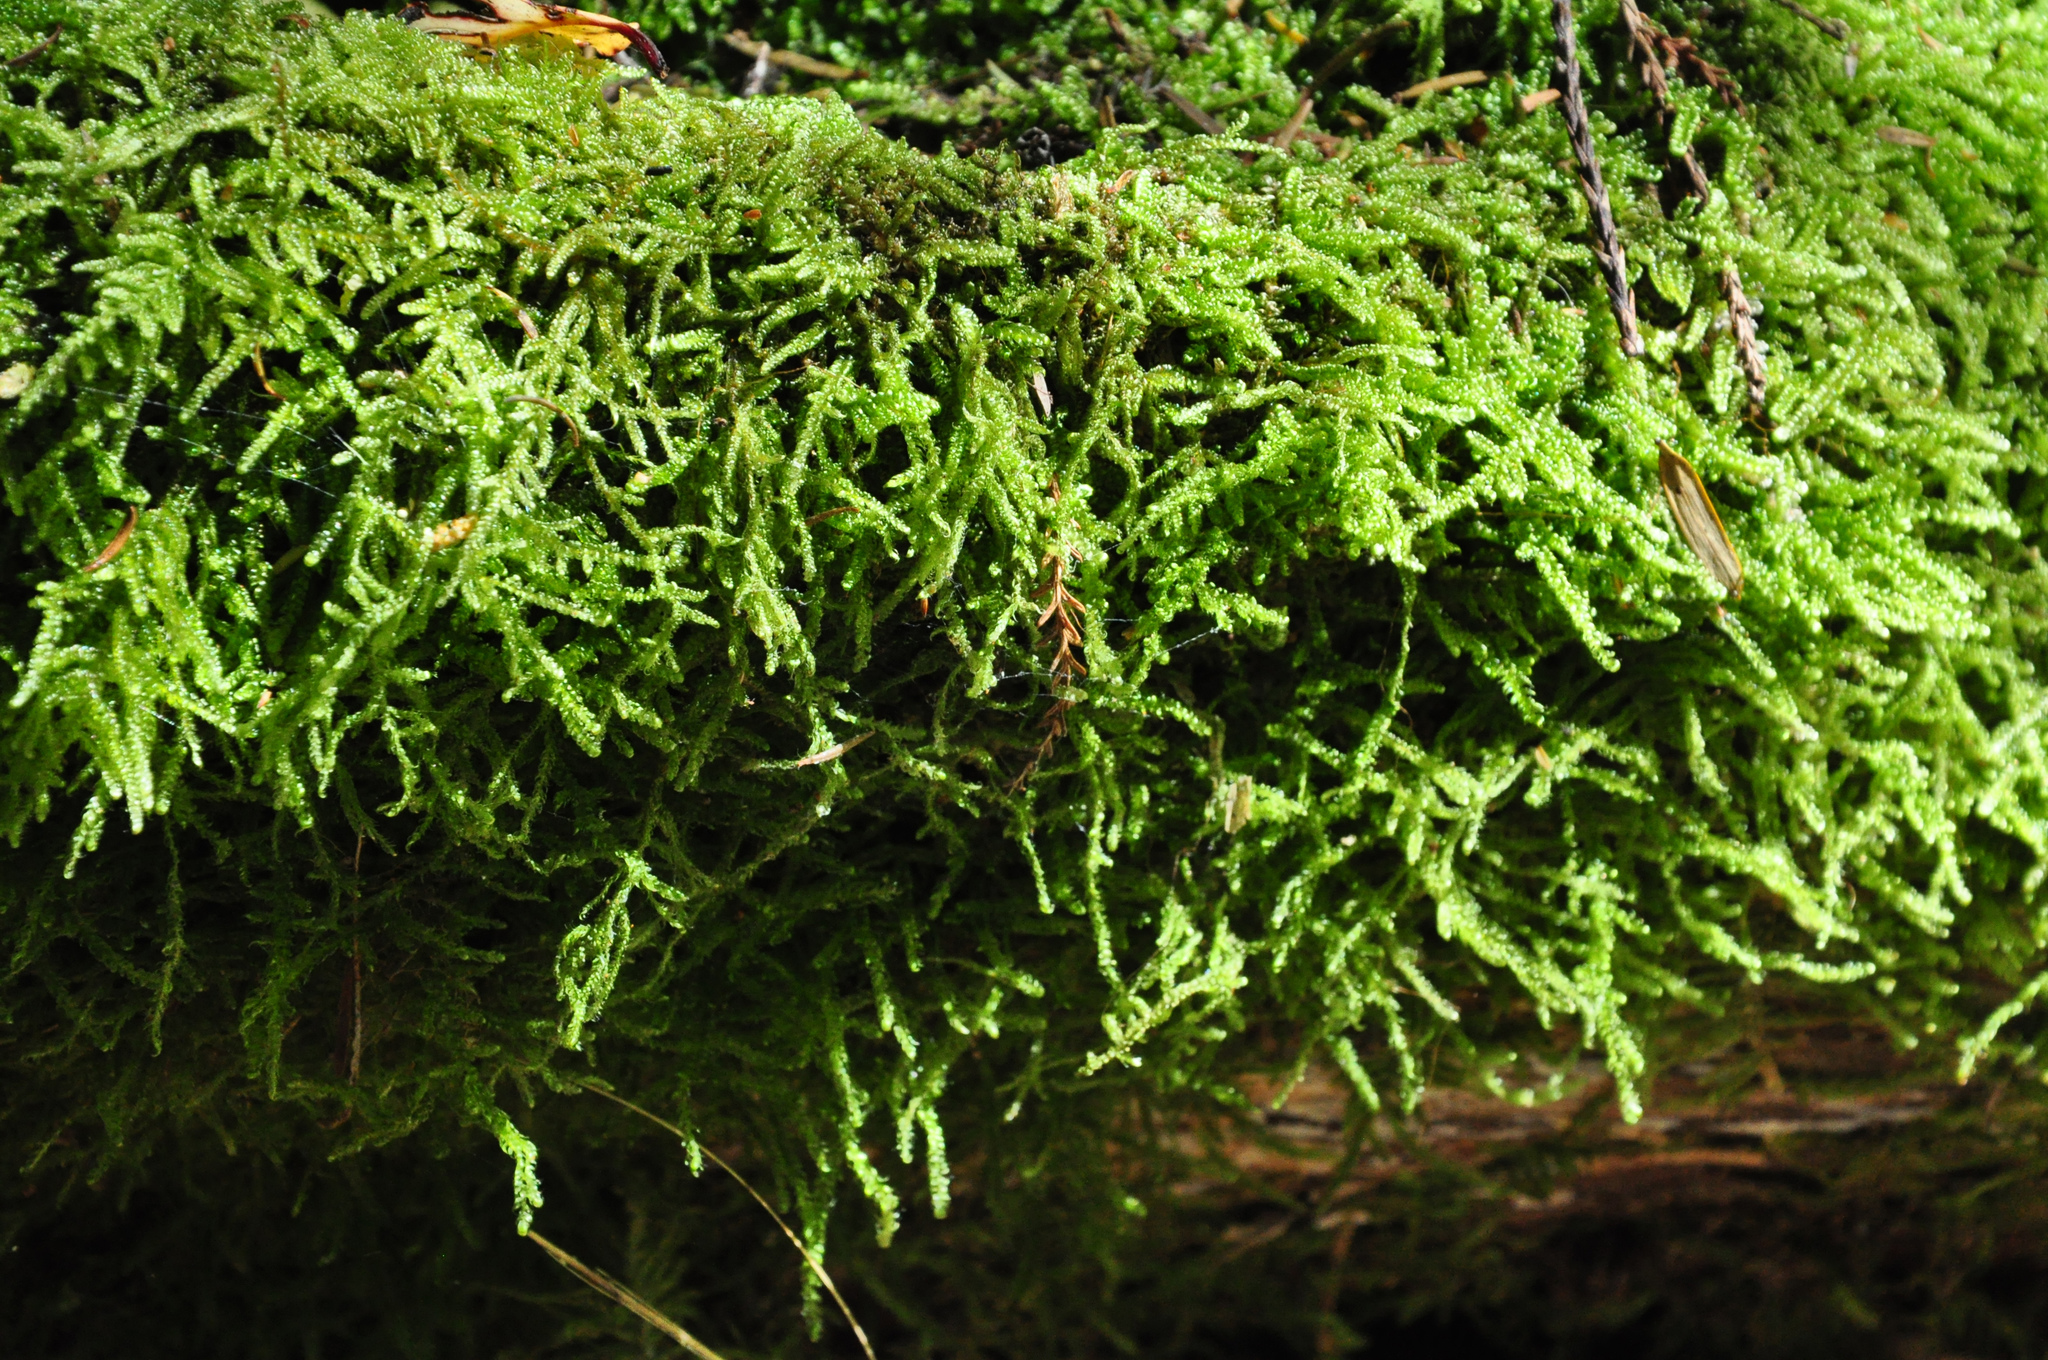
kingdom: Plantae
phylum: Bryophyta
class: Bryopsida
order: Hypnales
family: Hypnaceae
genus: Hypnum
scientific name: Hypnum cupressiforme
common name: Cypress-leaved plait-moss
